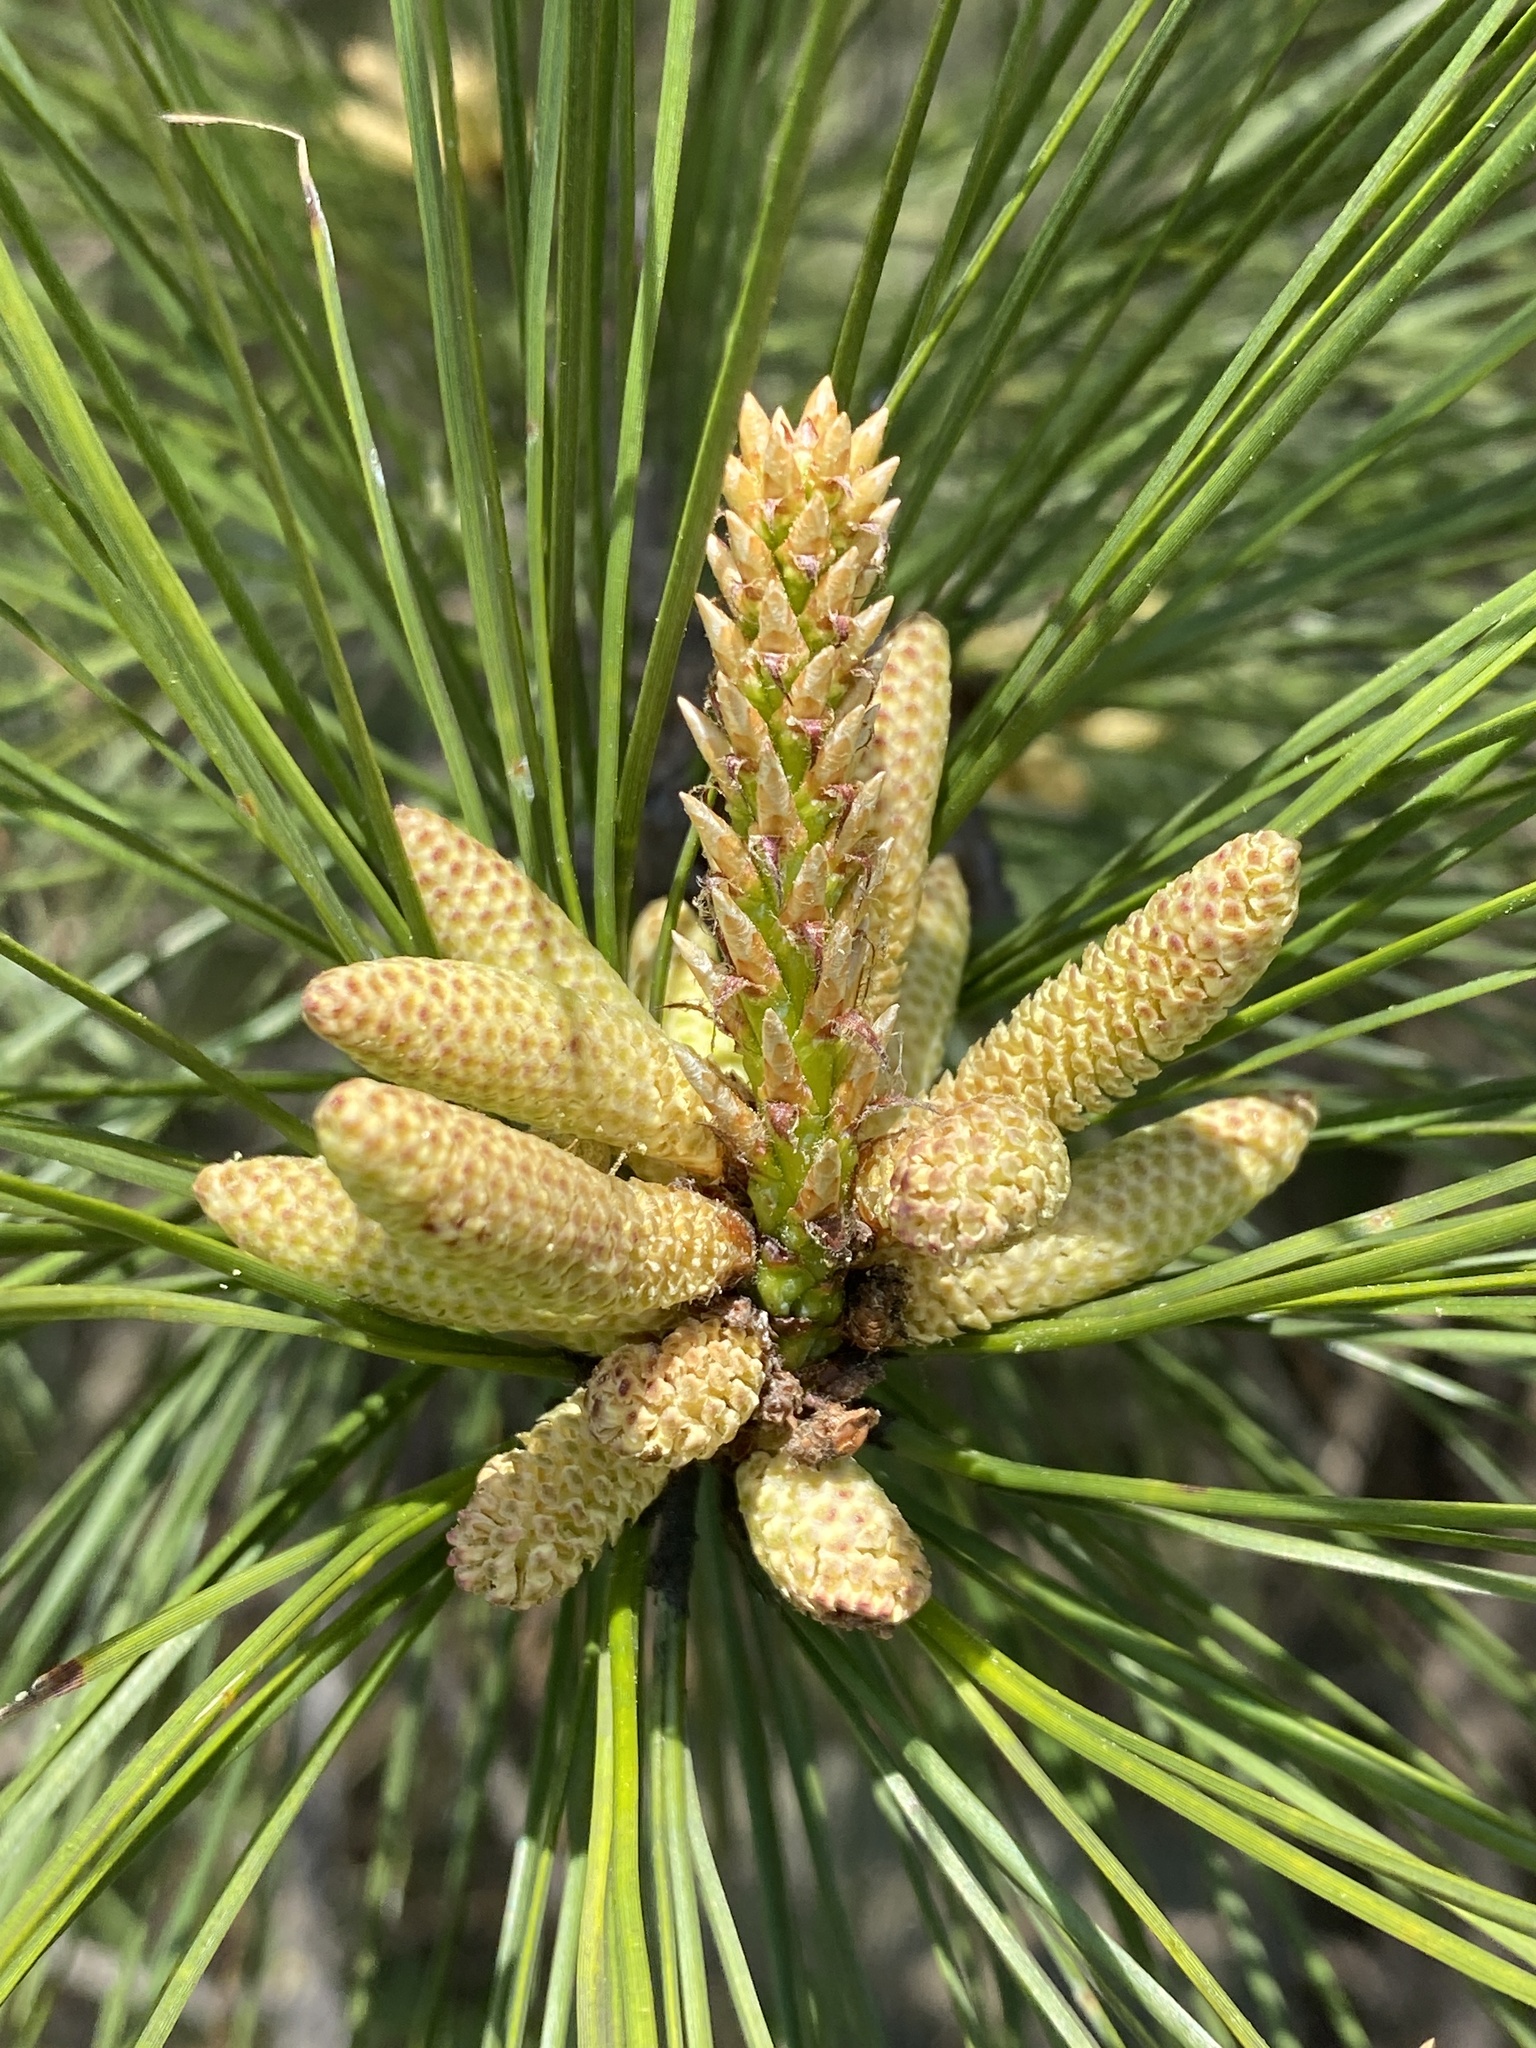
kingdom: Plantae
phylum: Tracheophyta
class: Pinopsida
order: Pinales
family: Pinaceae
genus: Pinus
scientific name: Pinus taeda
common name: Loblolly pine
